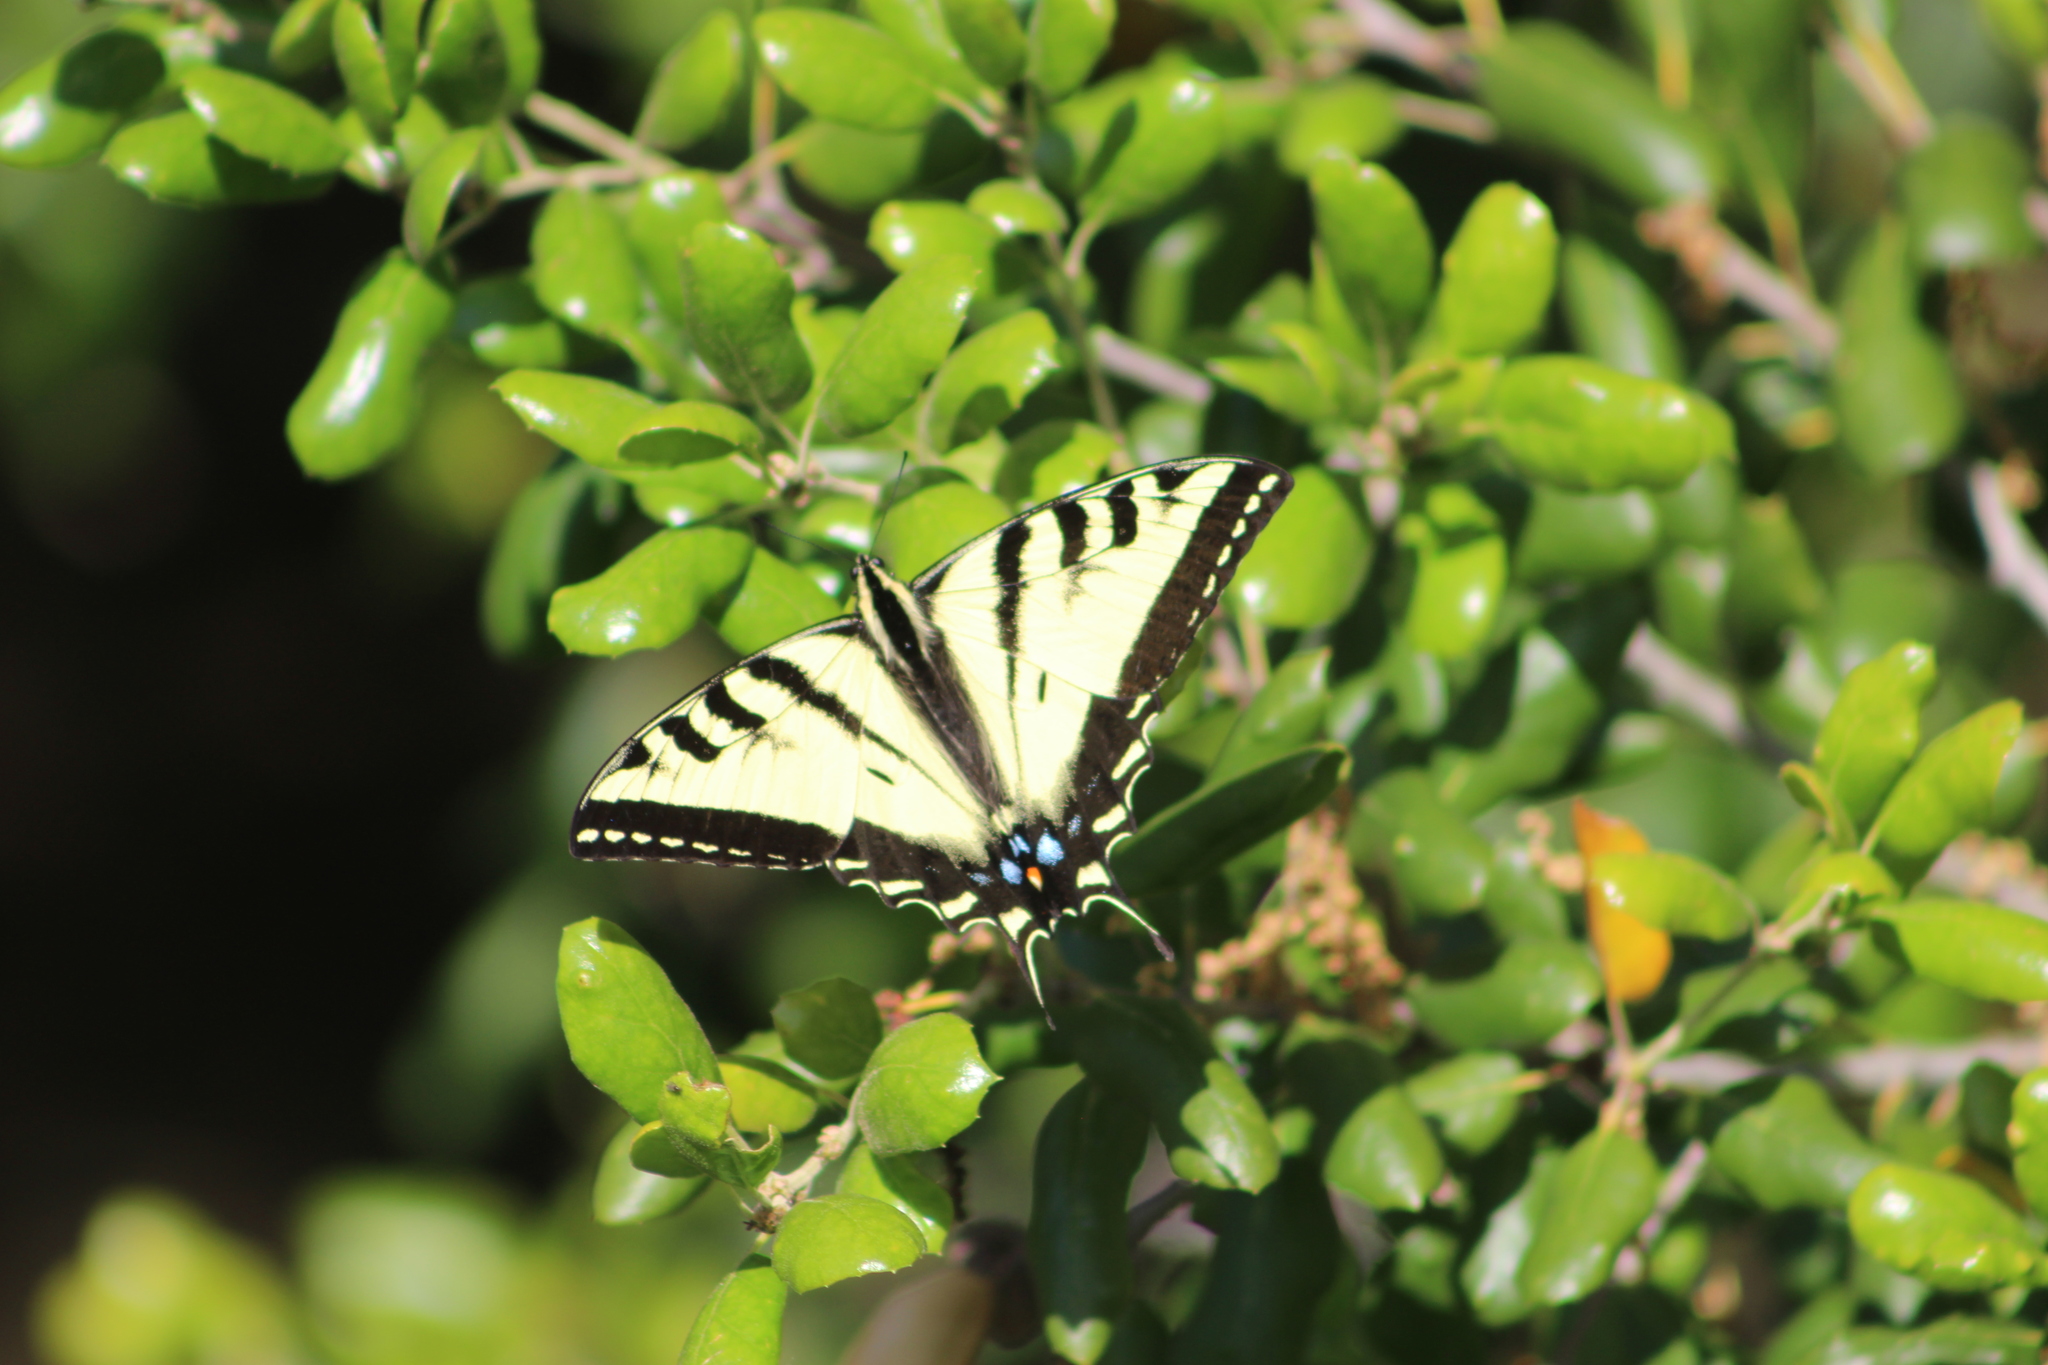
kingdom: Animalia
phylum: Arthropoda
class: Insecta
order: Lepidoptera
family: Papilionidae
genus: Papilio
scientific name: Papilio rutulus
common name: Western tiger swallowtail
